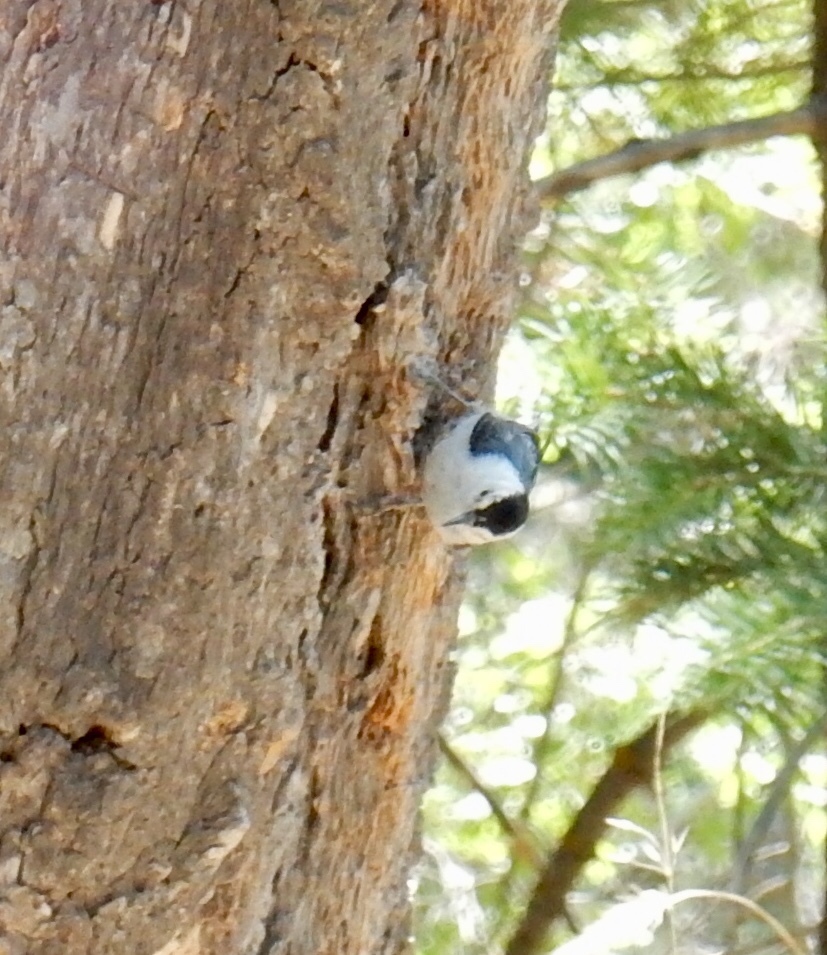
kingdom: Animalia
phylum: Chordata
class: Aves
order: Passeriformes
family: Sittidae
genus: Sitta
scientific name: Sitta carolinensis
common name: White-breasted nuthatch
